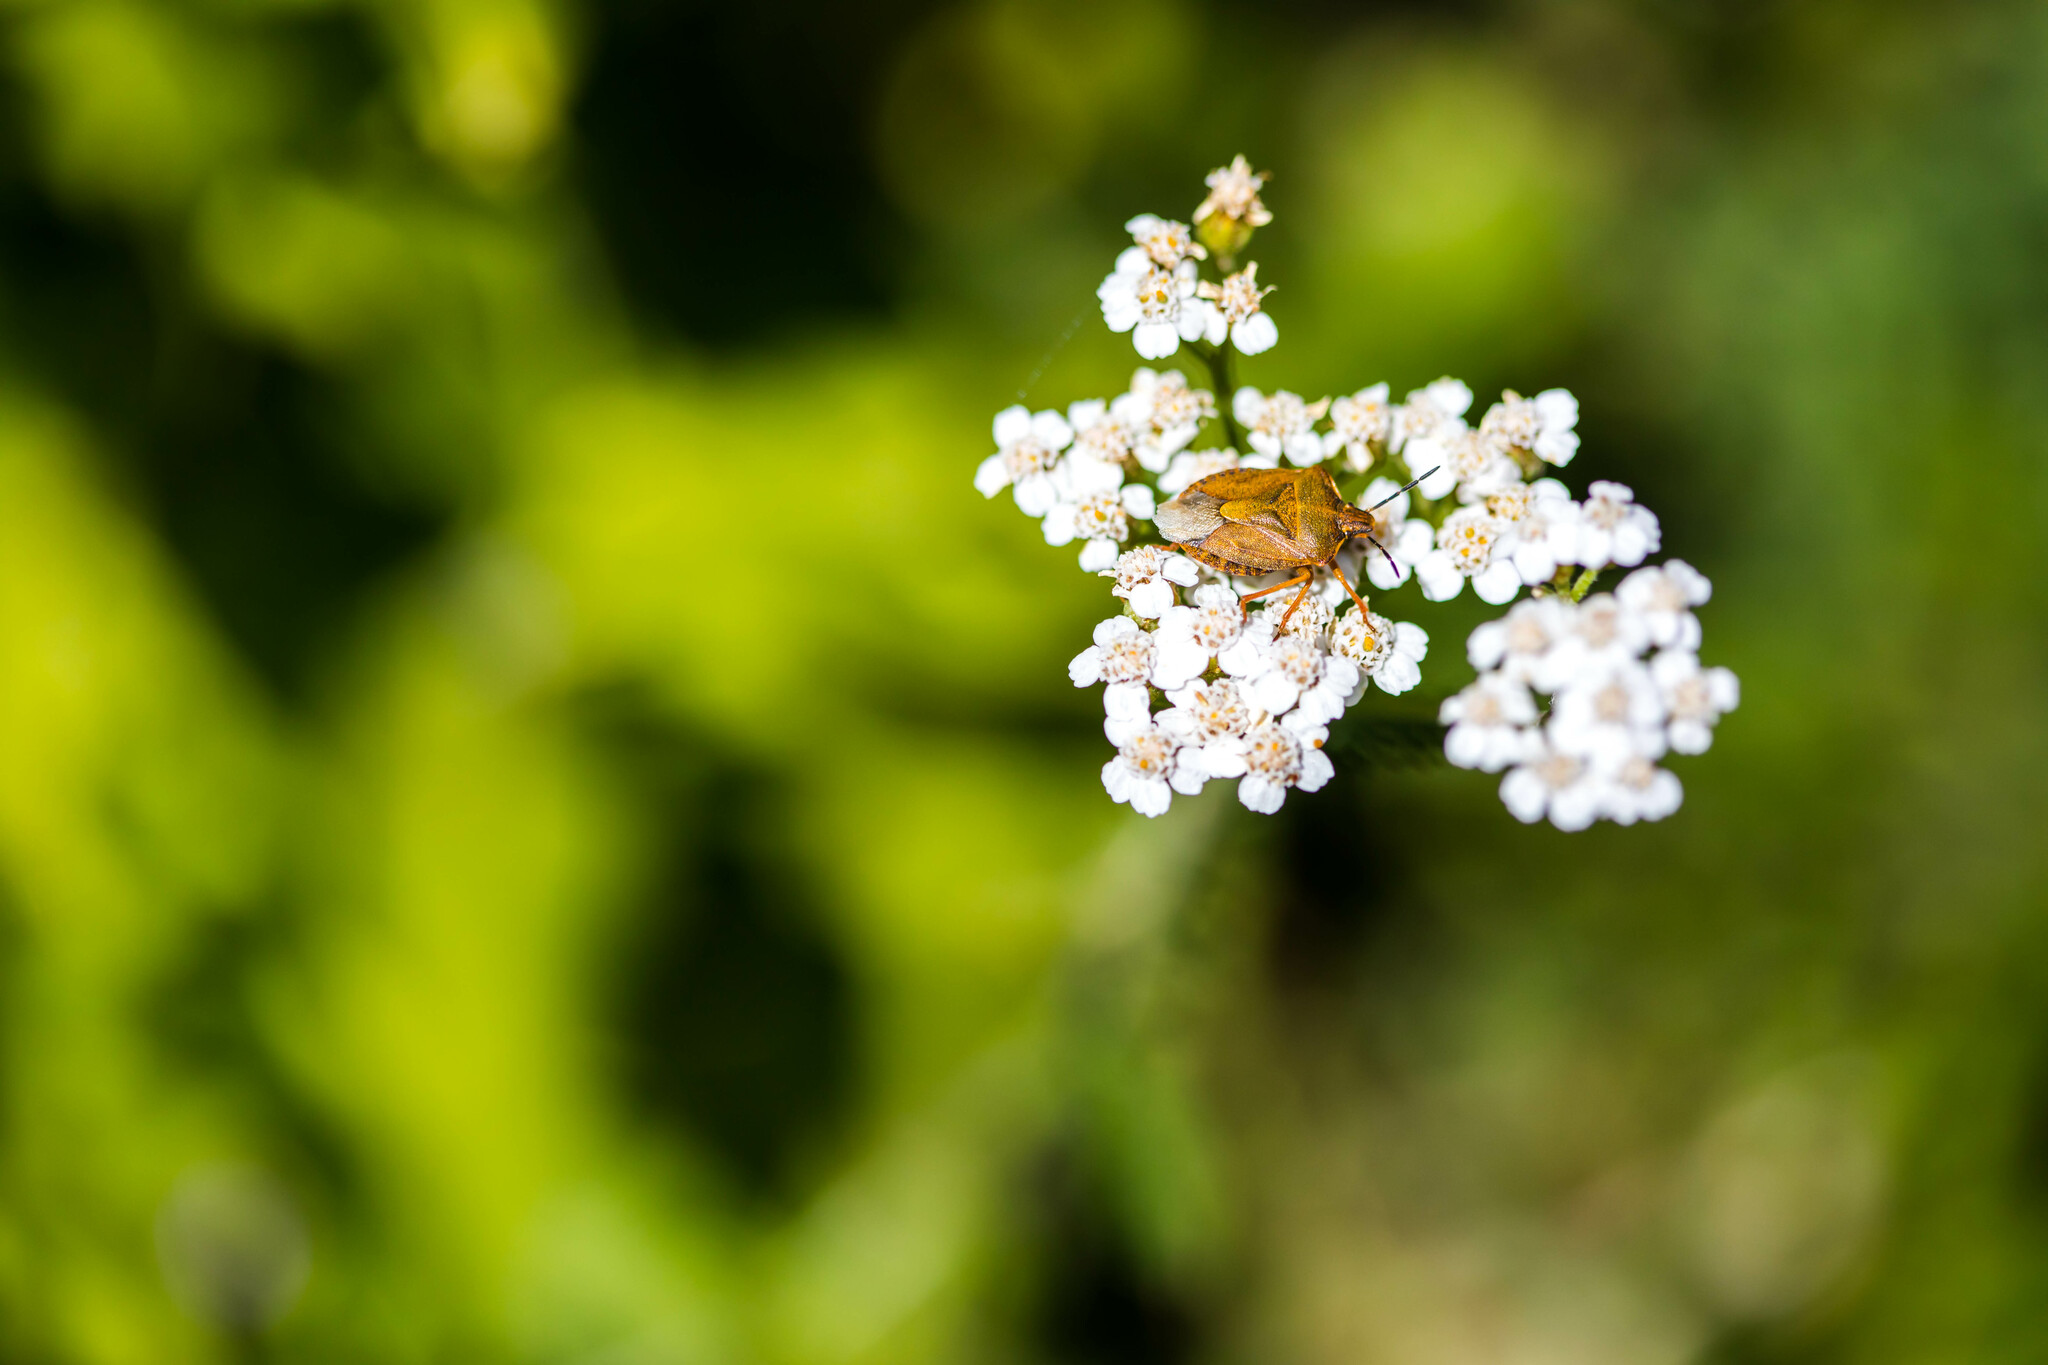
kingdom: Animalia
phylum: Arthropoda
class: Insecta
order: Hemiptera
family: Pentatomidae
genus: Carpocoris
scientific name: Carpocoris melanocerus
